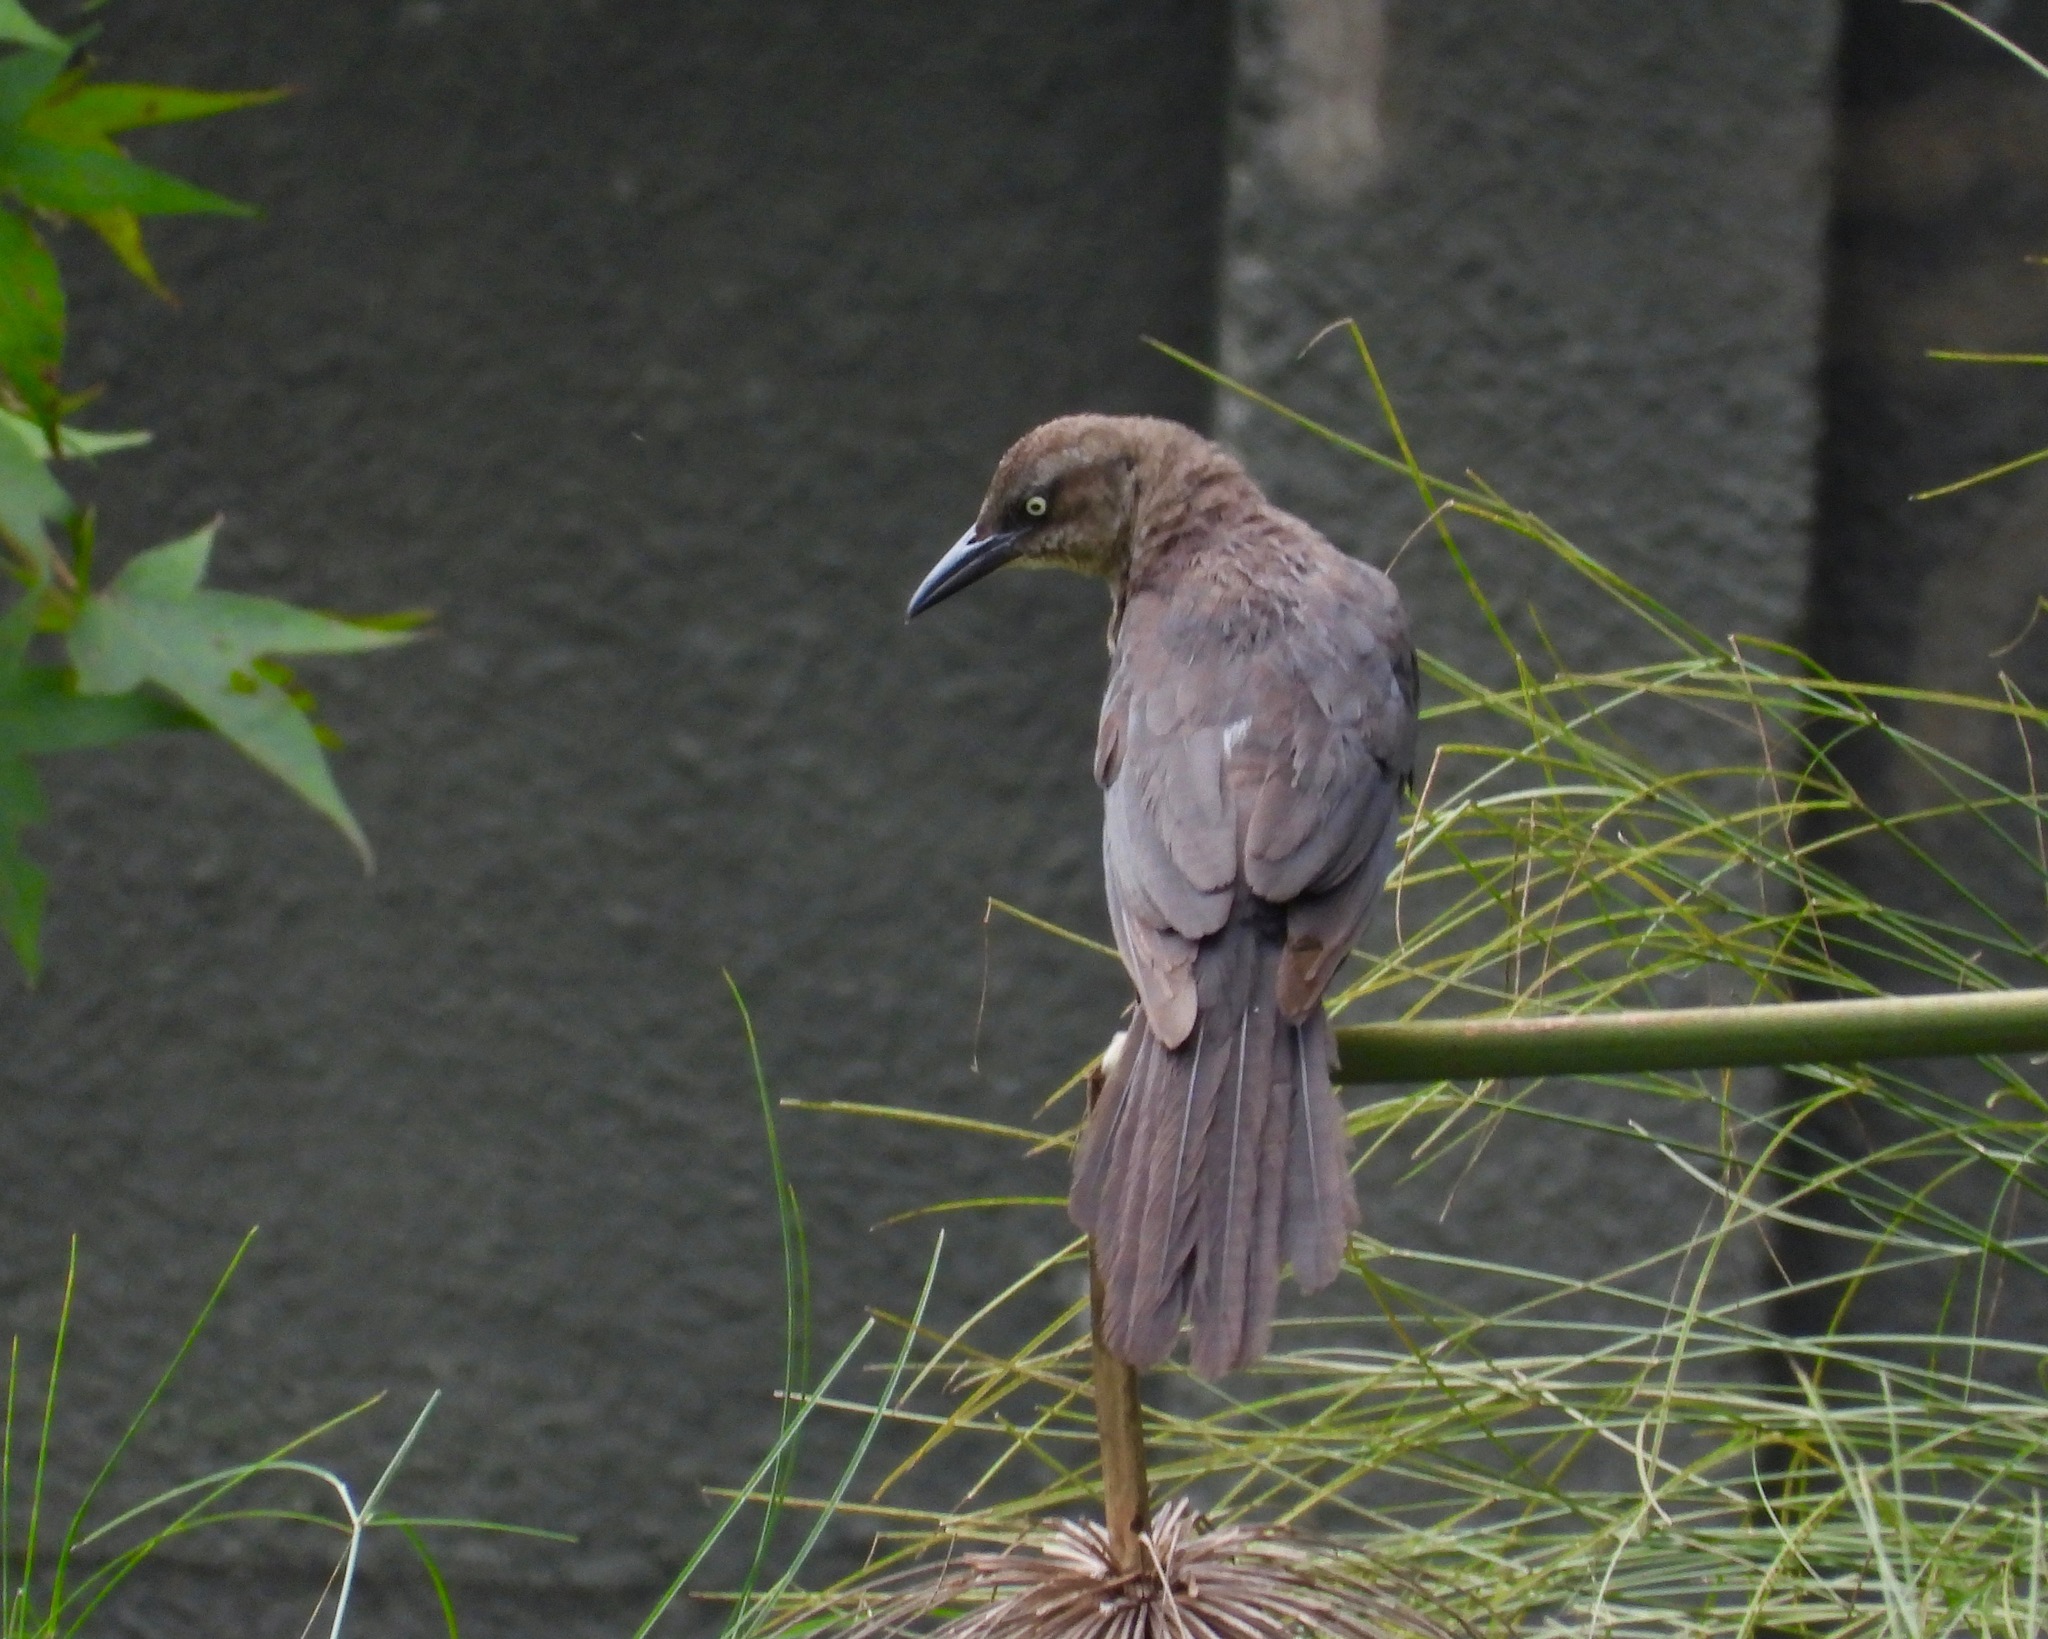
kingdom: Animalia
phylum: Chordata
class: Aves
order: Passeriformes
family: Icteridae
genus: Quiscalus
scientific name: Quiscalus mexicanus
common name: Great-tailed grackle
